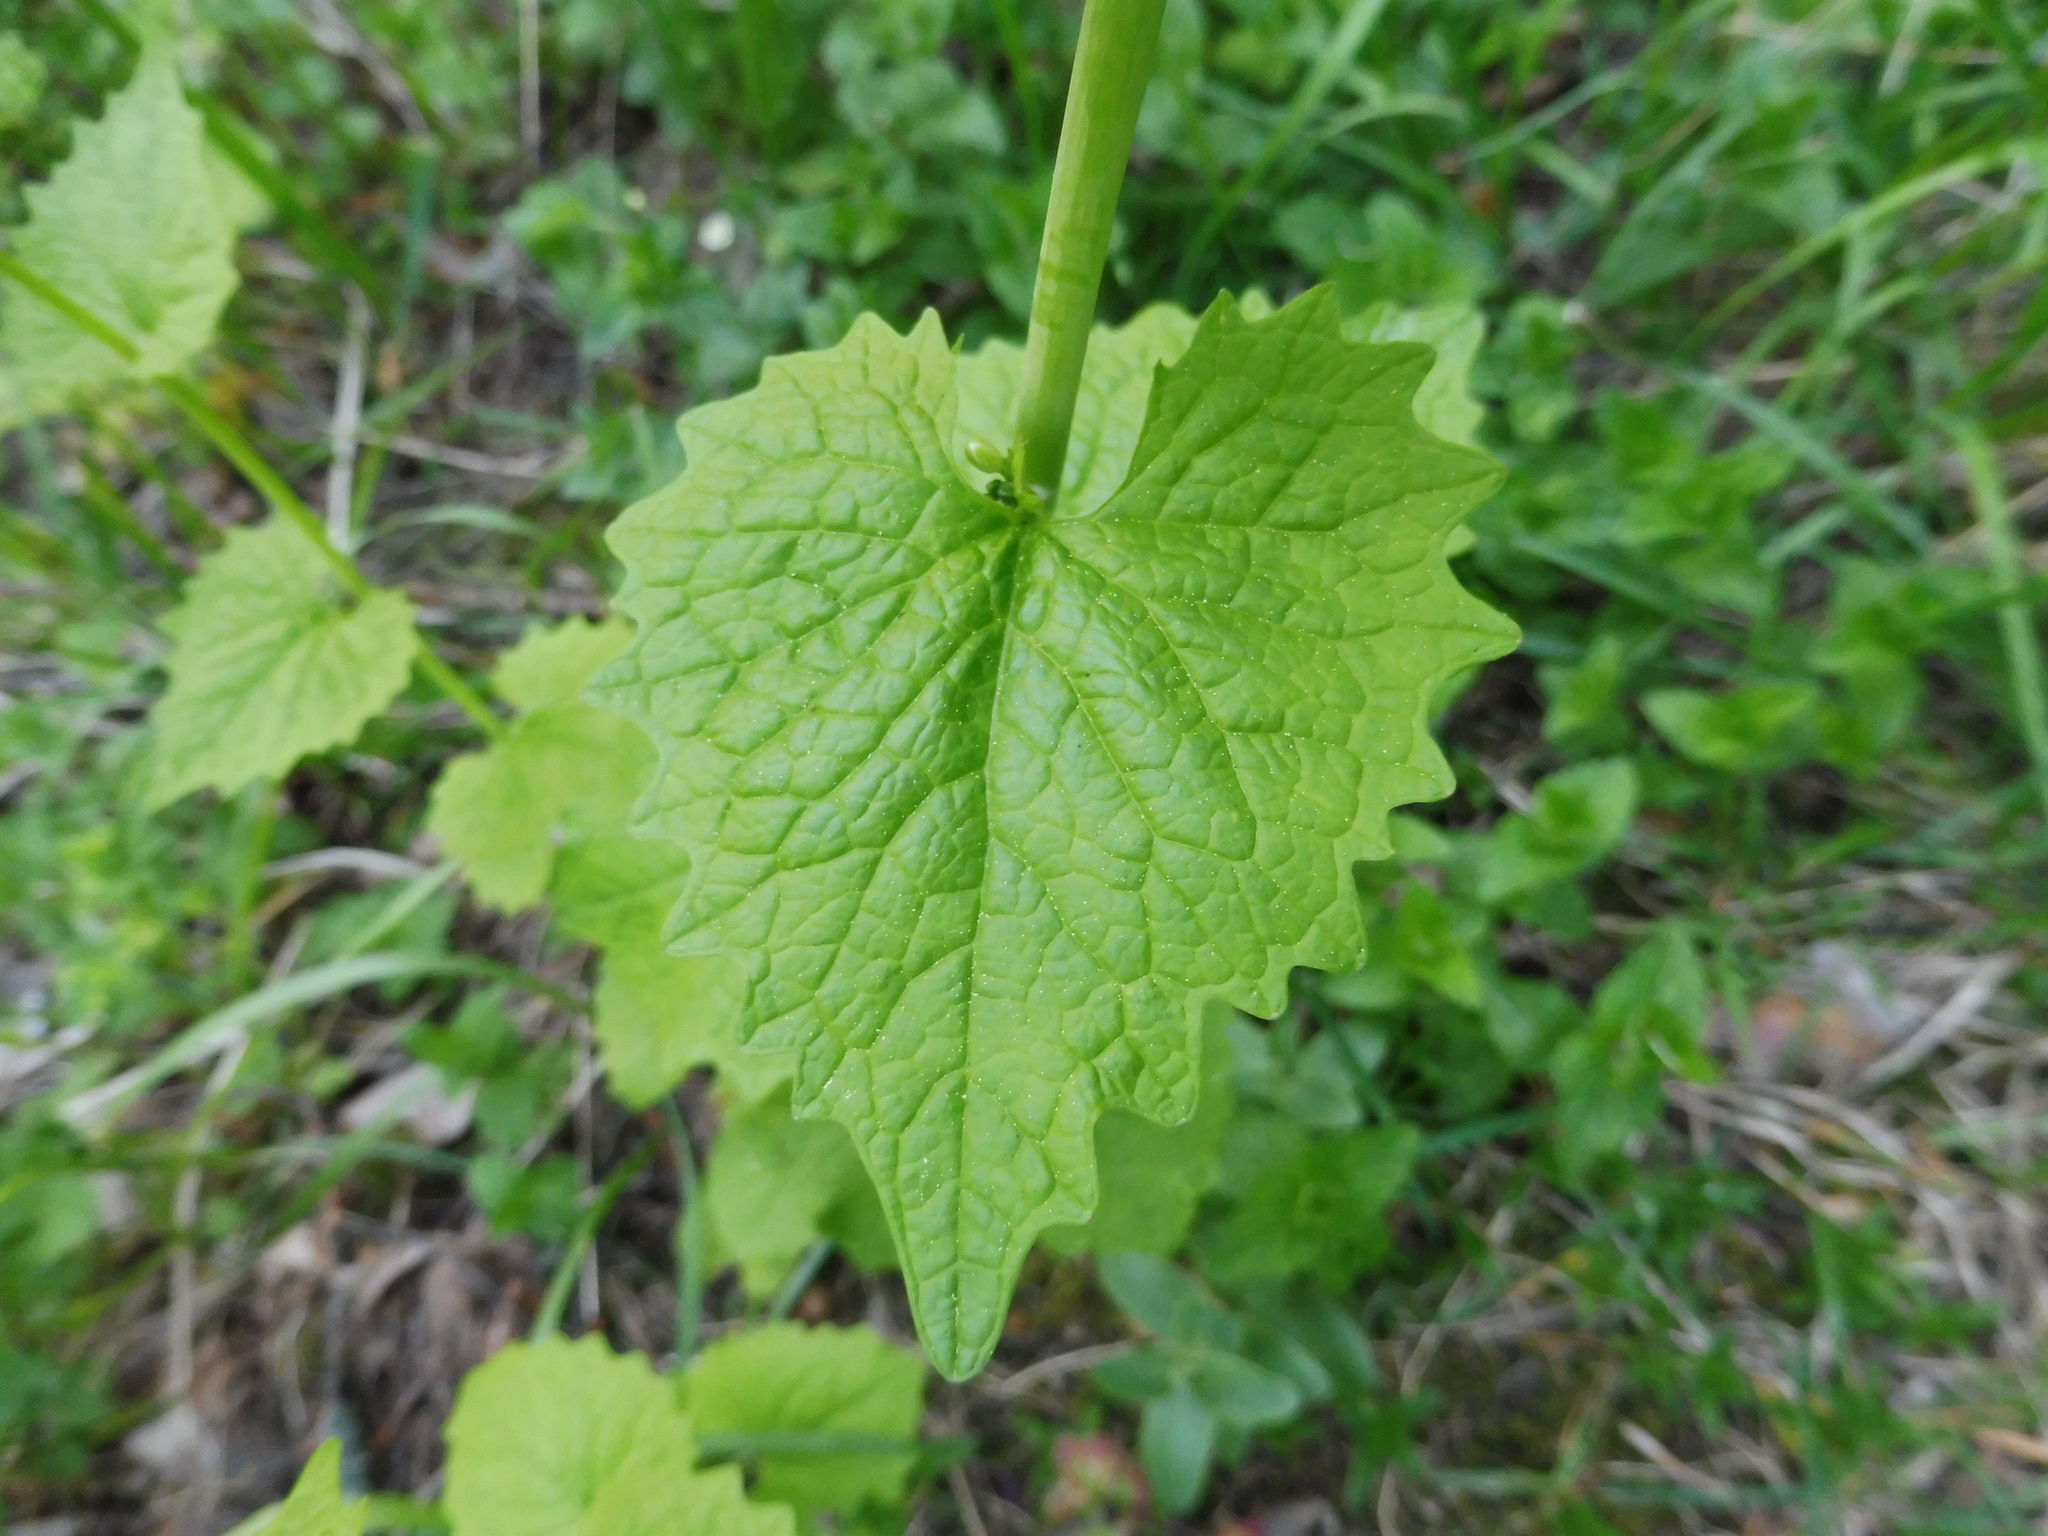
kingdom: Plantae
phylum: Tracheophyta
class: Magnoliopsida
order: Brassicales
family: Brassicaceae
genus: Alliaria
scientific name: Alliaria petiolata
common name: Garlic mustard
